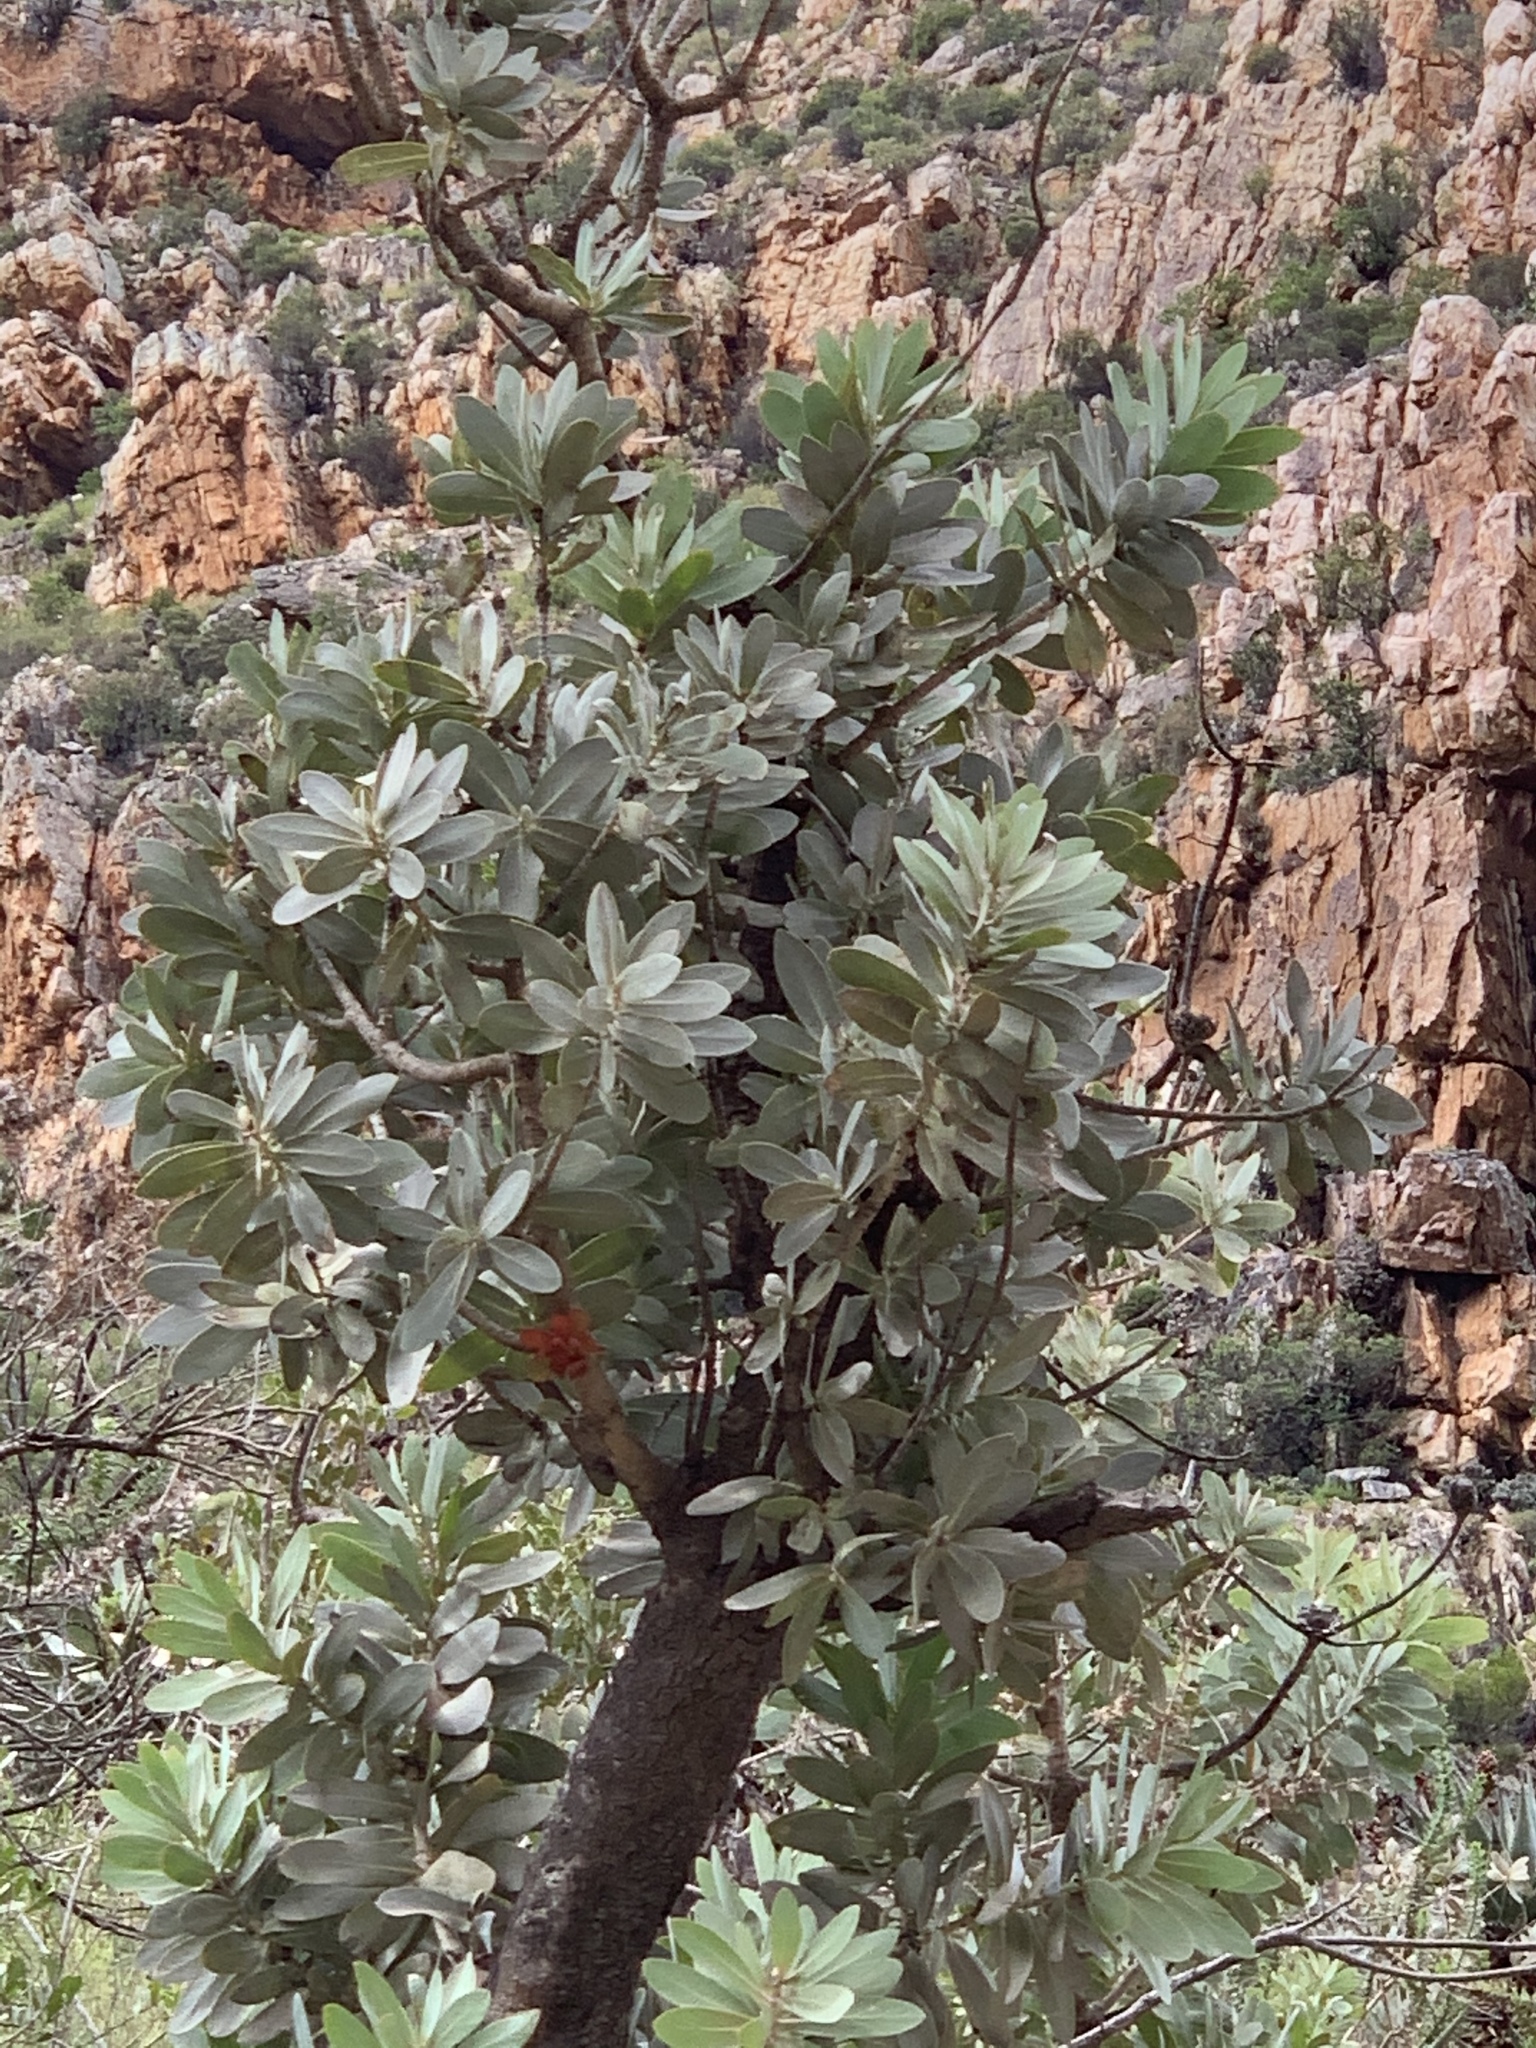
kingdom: Plantae
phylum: Tracheophyta
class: Magnoliopsida
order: Proteales
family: Proteaceae
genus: Protea
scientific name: Protea nitida
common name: Tree protea
